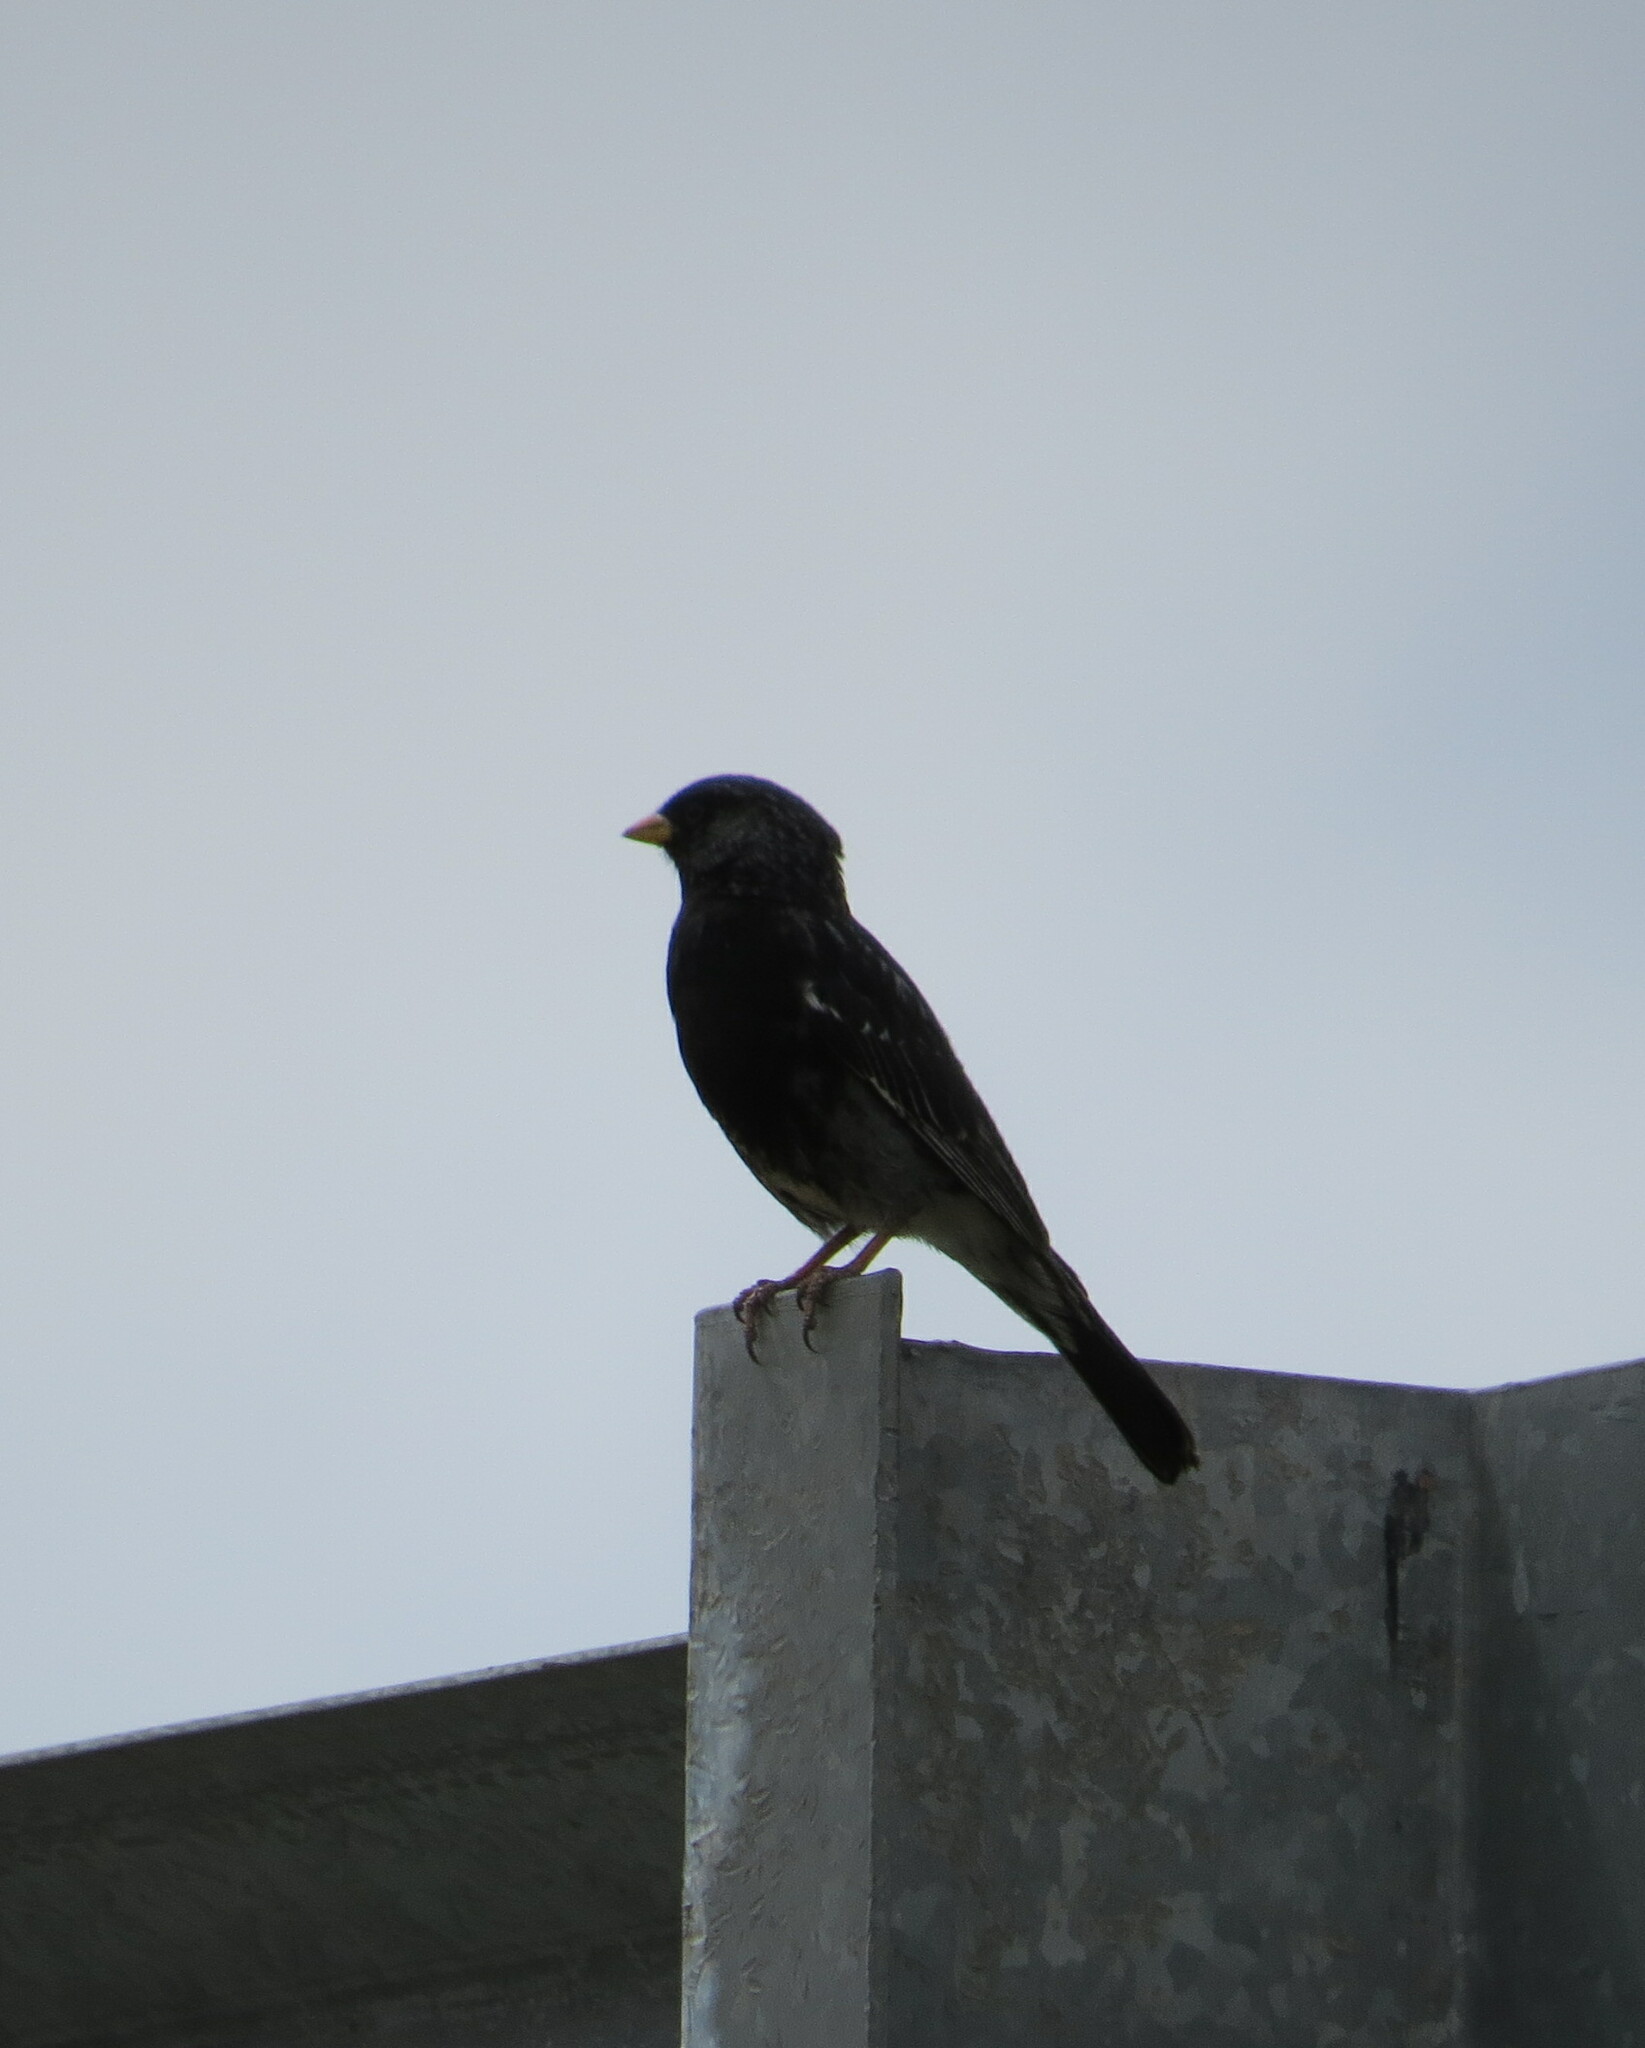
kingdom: Animalia
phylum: Chordata
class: Aves
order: Passeriformes
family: Thraupidae
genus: Rhopospina
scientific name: Rhopospina fruticeti
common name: Mourning sierra finch
